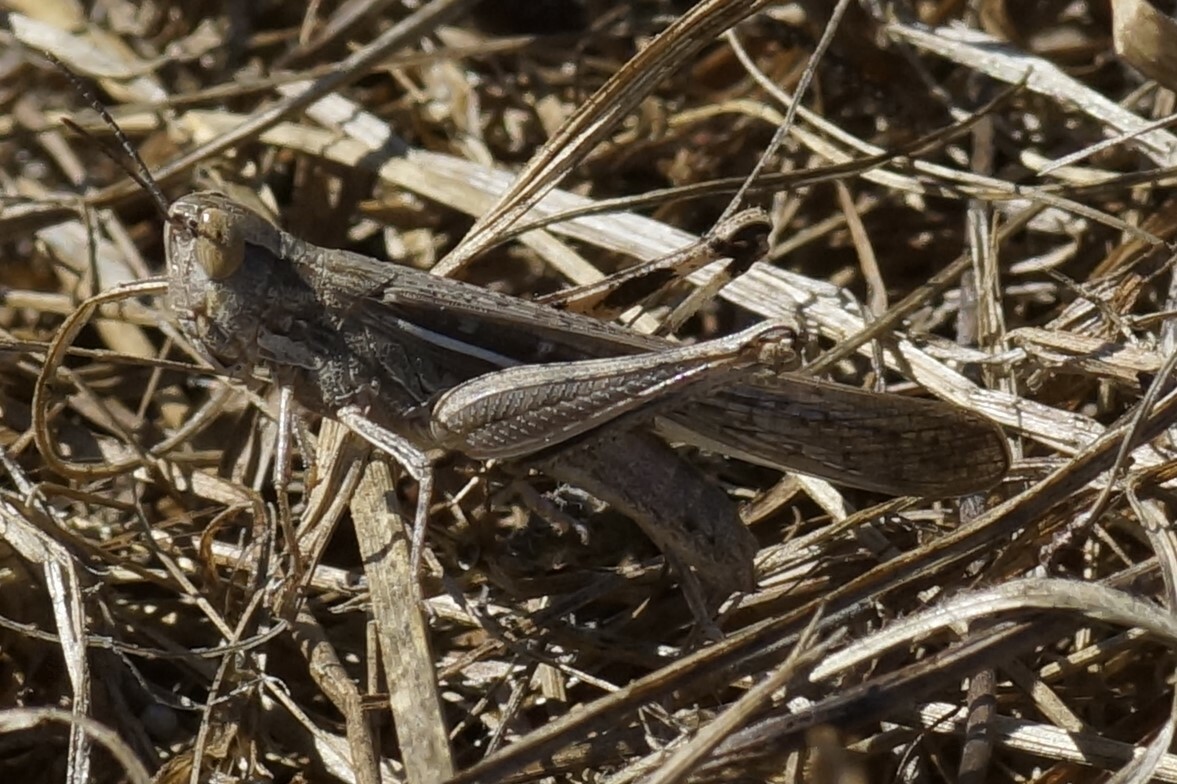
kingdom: Animalia
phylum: Arthropoda
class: Insecta
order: Orthoptera
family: Acrididae
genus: Aiolopus
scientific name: Aiolopus thalassinus
